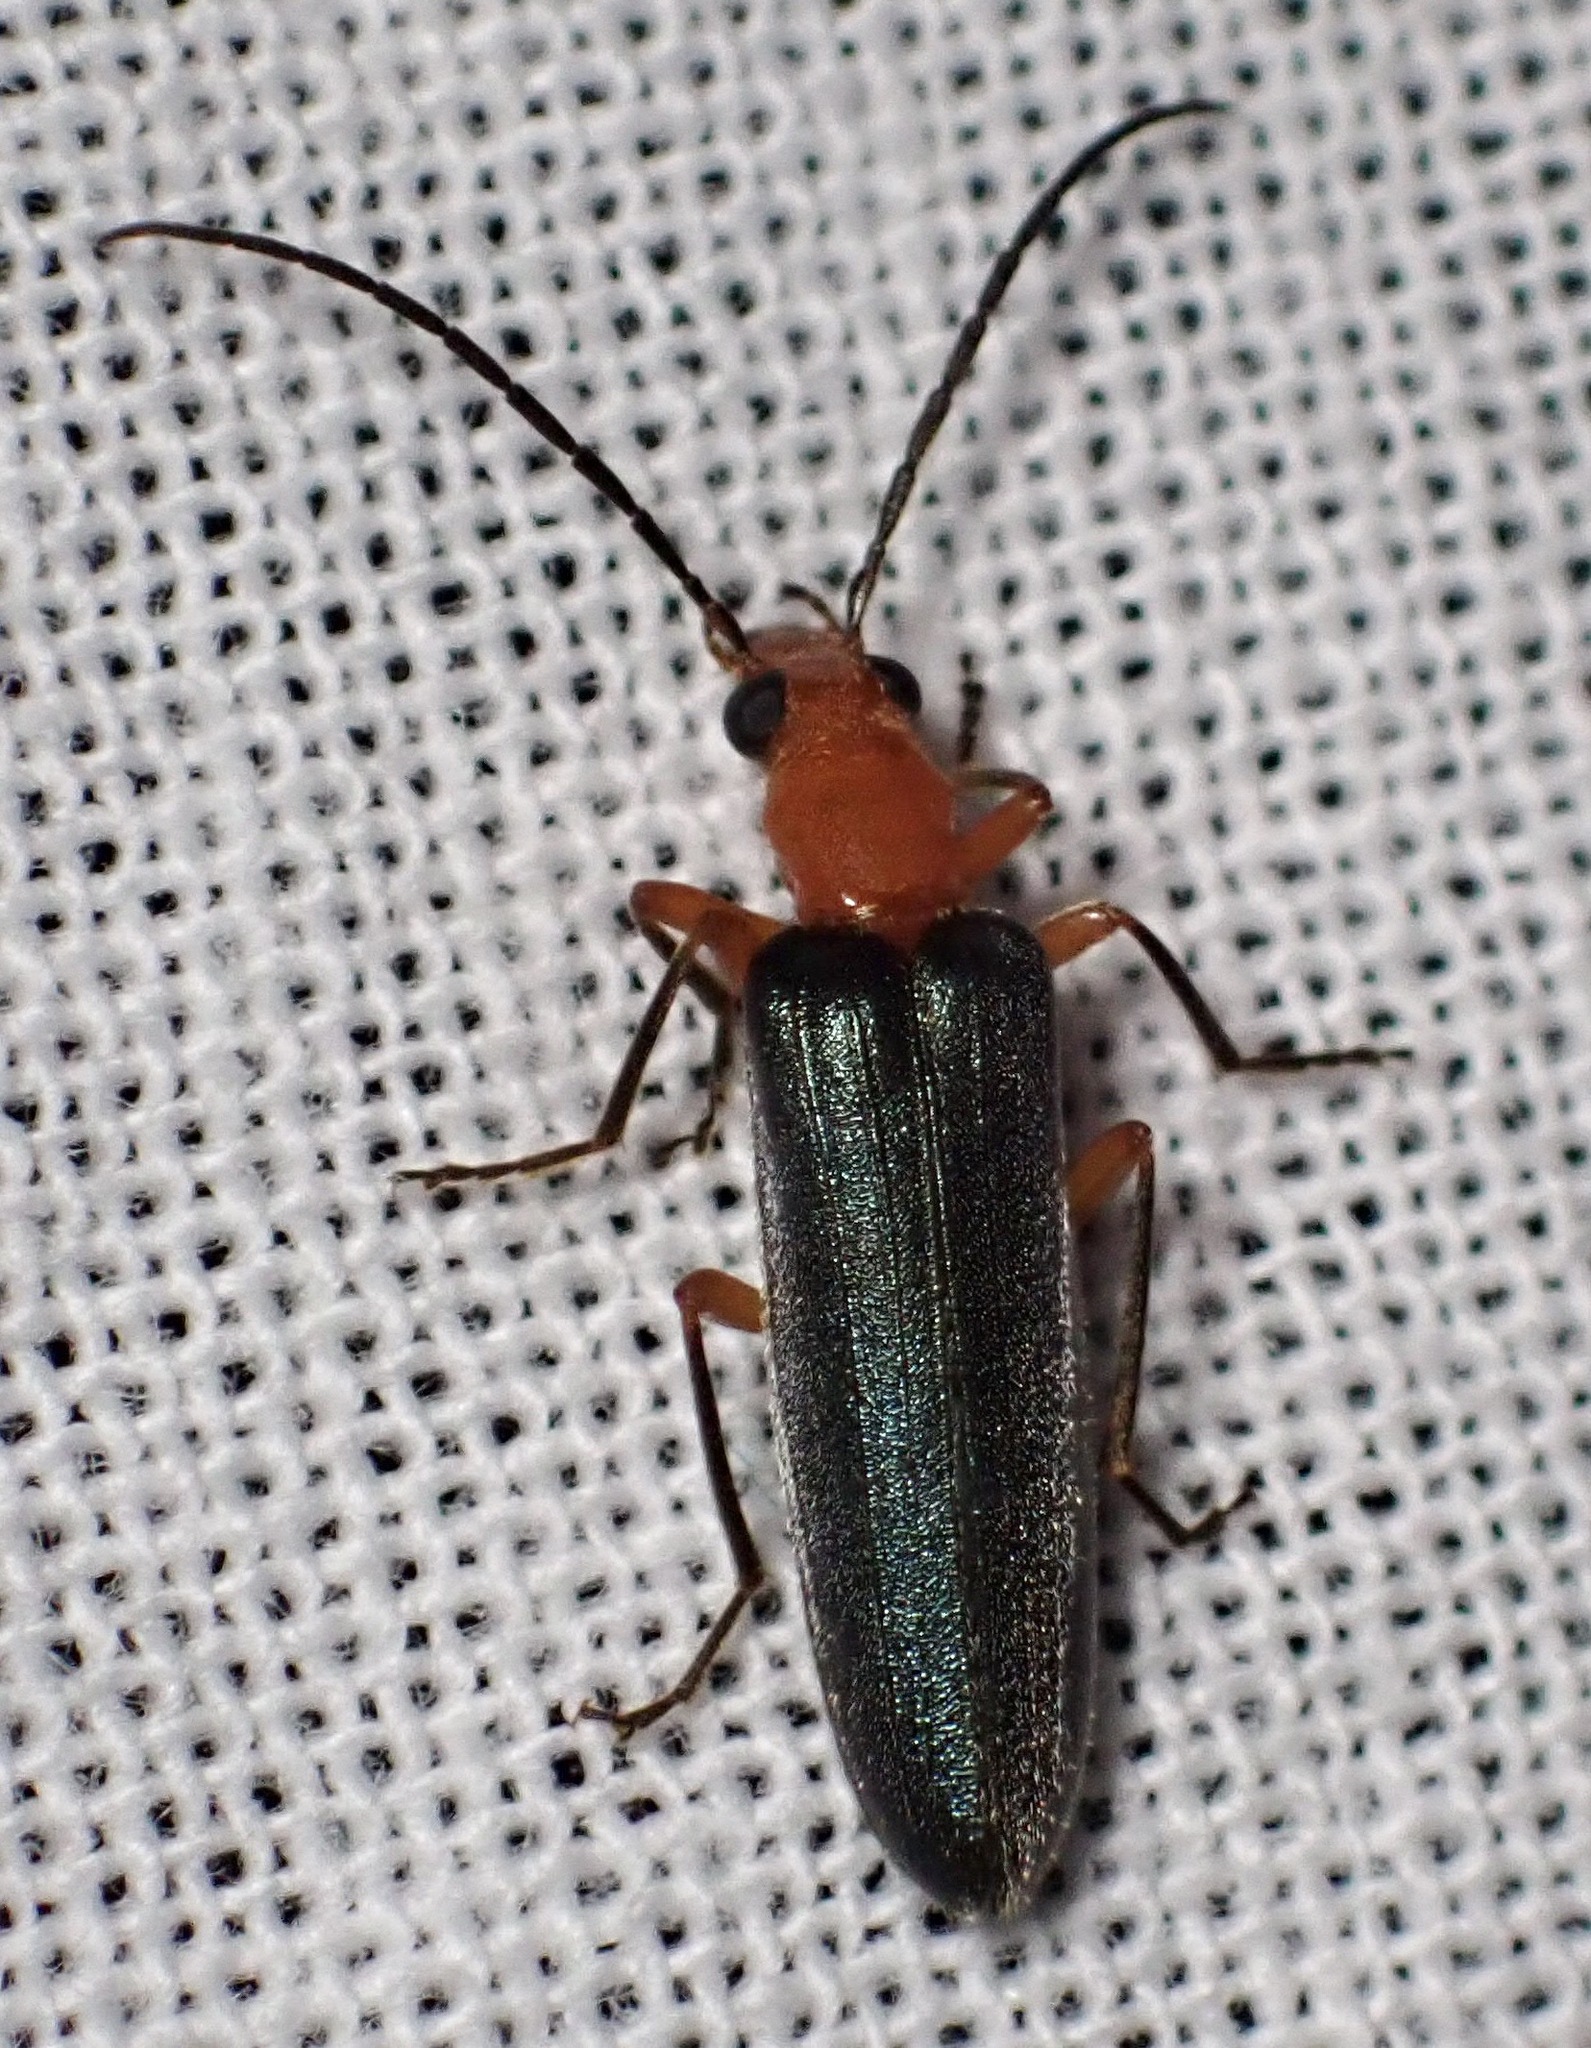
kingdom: Animalia
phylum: Arthropoda
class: Insecta
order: Coleoptera
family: Oedemeridae
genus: Nacerdes
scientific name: Nacerdes
